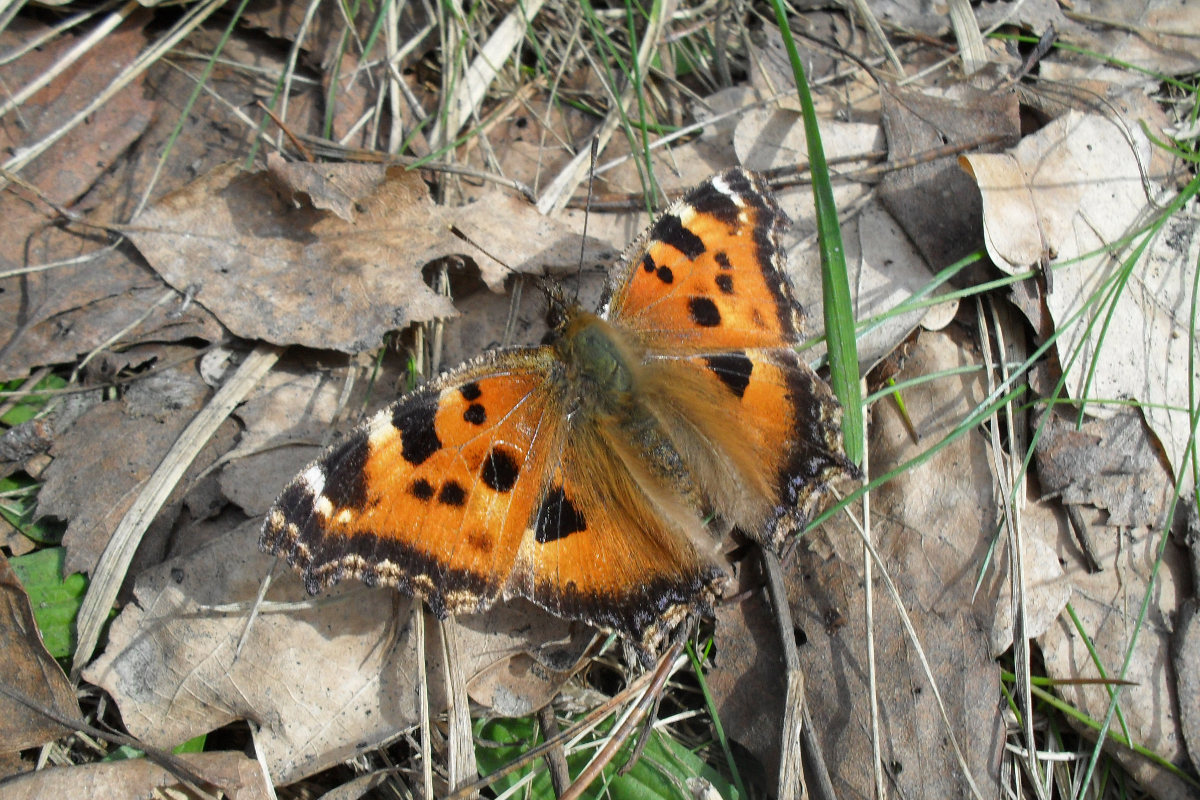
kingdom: Animalia
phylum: Arthropoda
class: Insecta
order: Lepidoptera
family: Nymphalidae
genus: Nymphalis
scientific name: Nymphalis xanthomelas
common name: Scarce tortoiseshell
